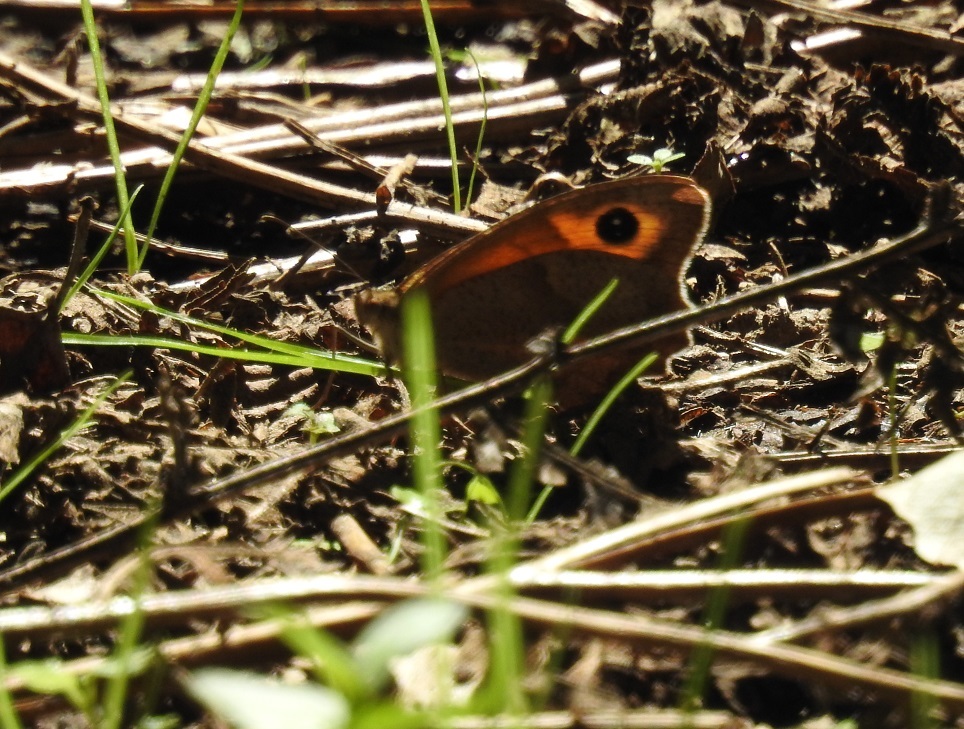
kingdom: Animalia
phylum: Arthropoda
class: Insecta
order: Lepidoptera
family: Nymphalidae
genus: Maniola
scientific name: Maniola jurtina
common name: Meadow brown
